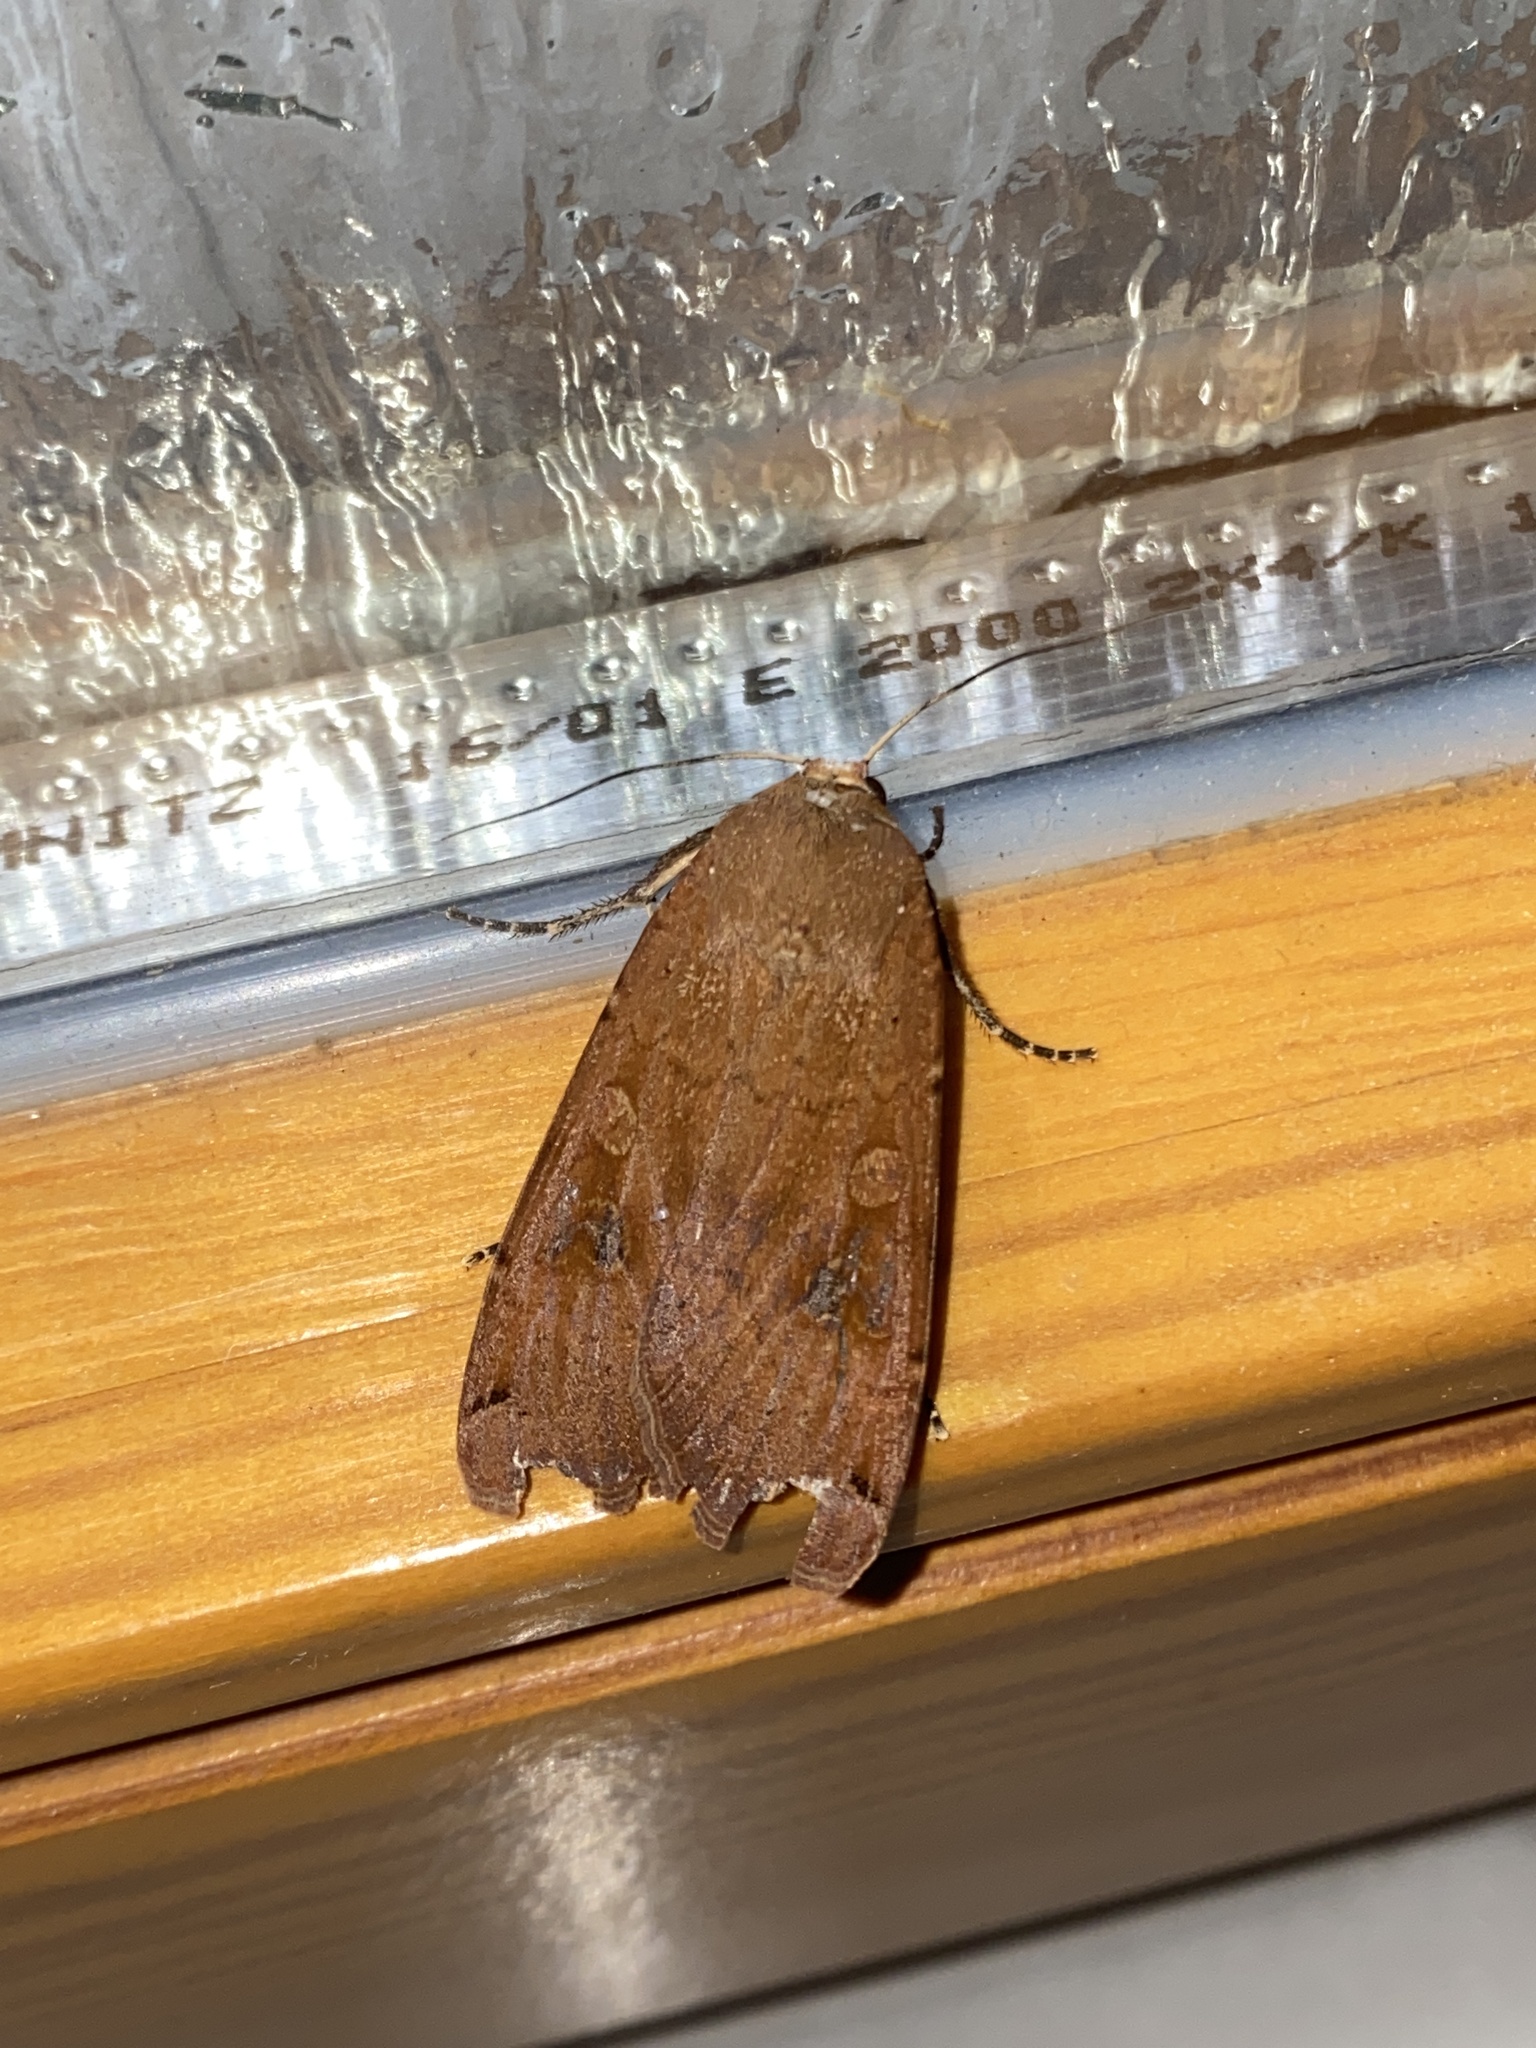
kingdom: Animalia
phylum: Arthropoda
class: Insecta
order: Lepidoptera
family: Noctuidae
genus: Noctua
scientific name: Noctua pronuba
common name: Large yellow underwing
